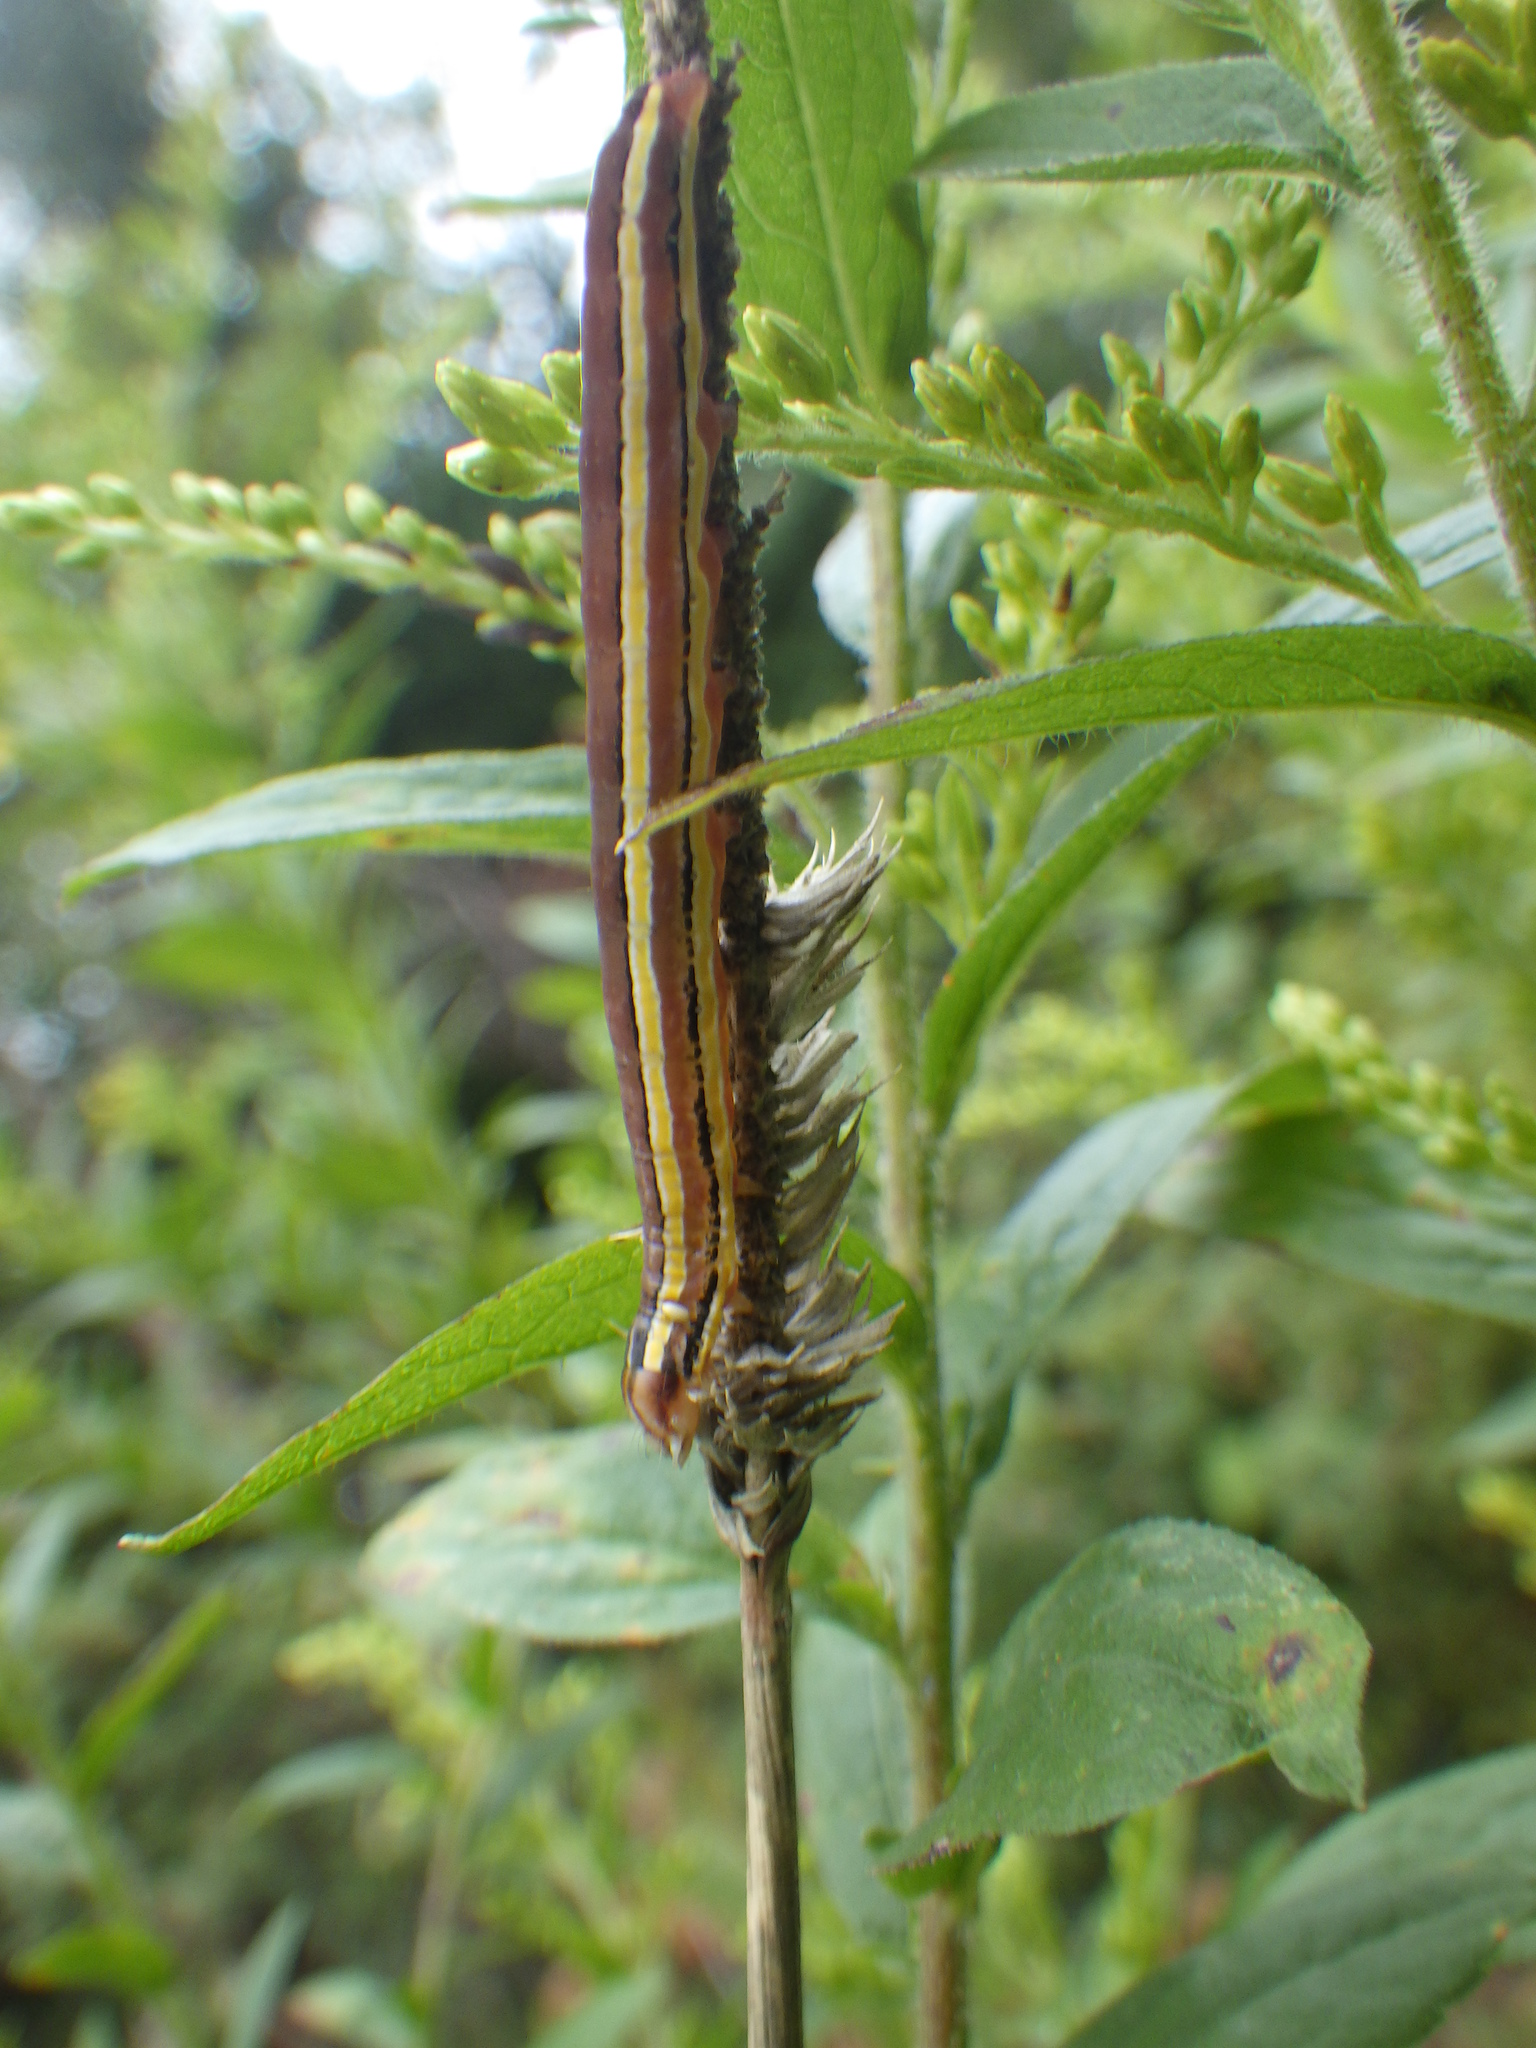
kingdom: Animalia
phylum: Arthropoda
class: Insecta
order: Lepidoptera
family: Noctuidae
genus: Trichordestra
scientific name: Trichordestra legitima
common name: Striped garden caterpillar
